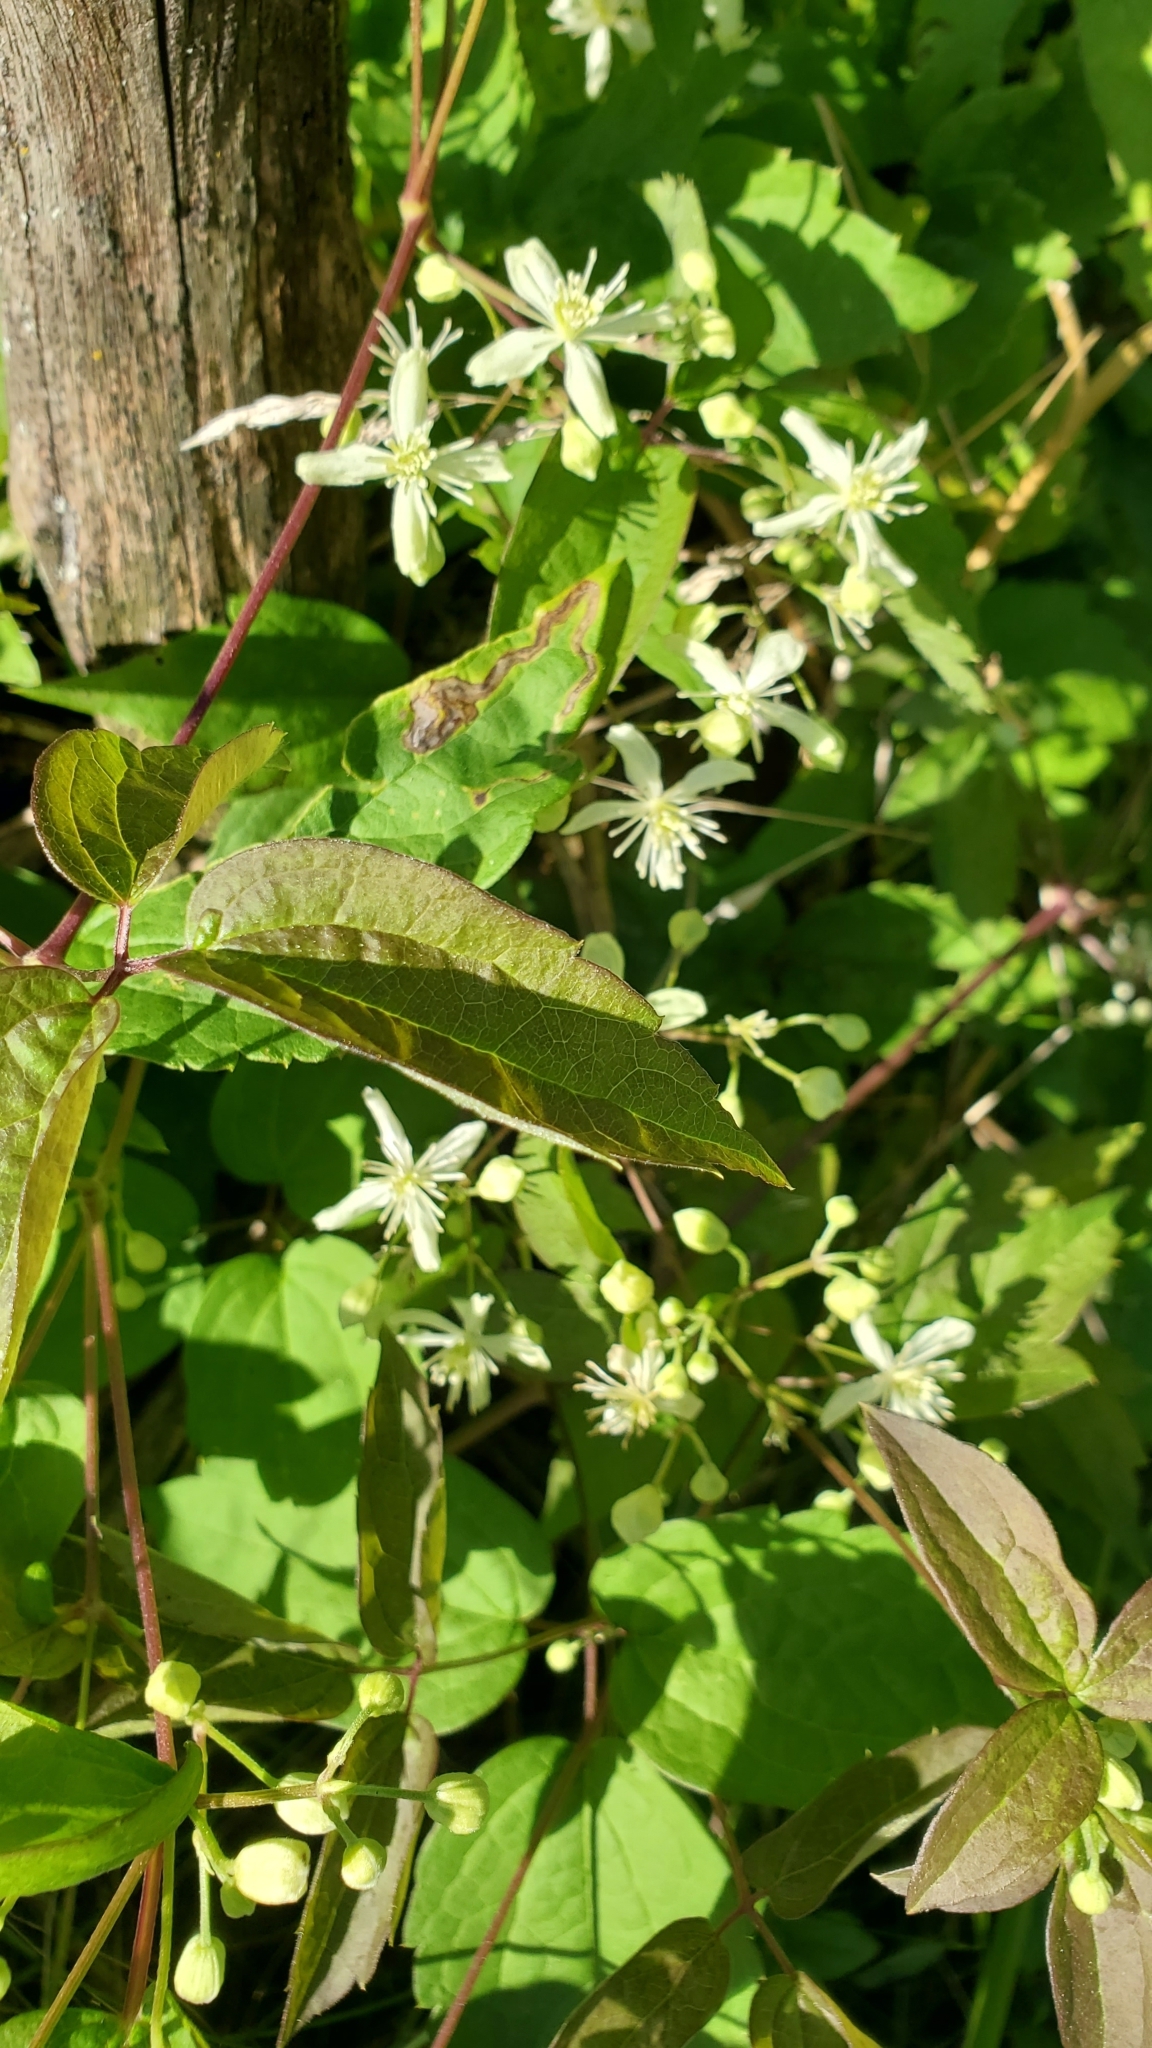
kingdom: Plantae
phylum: Tracheophyta
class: Magnoliopsida
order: Ranunculales
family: Ranunculaceae
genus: Clematis
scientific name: Clematis virginiana
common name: Virgin's-bower
